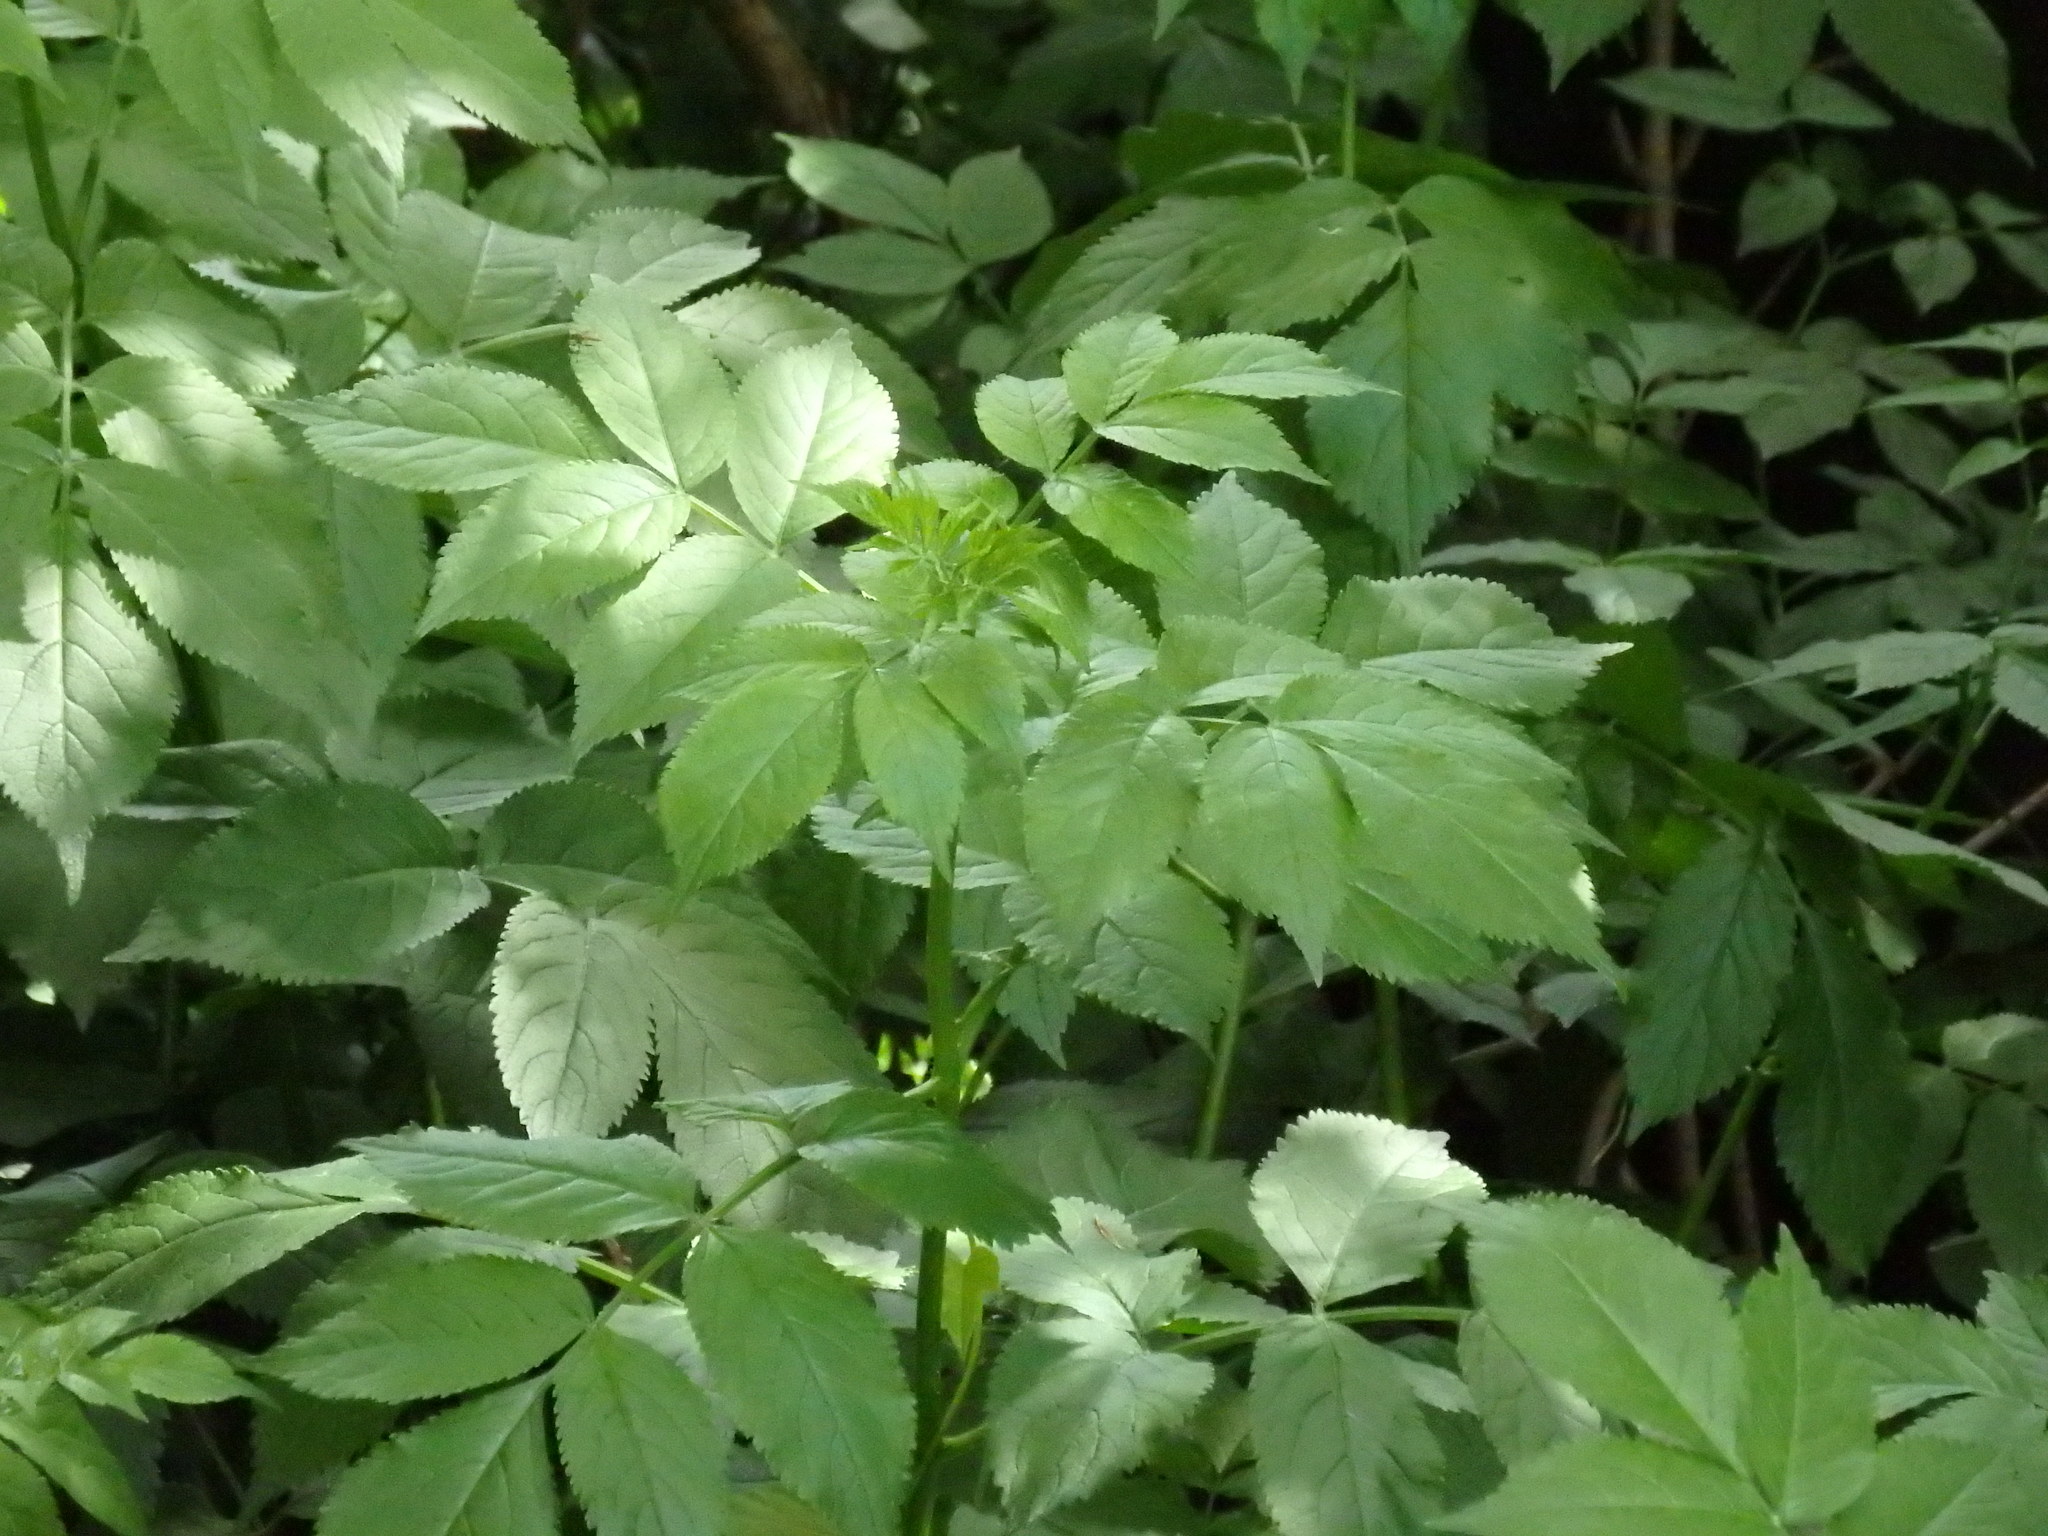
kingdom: Plantae
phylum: Tracheophyta
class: Magnoliopsida
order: Dipsacales
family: Viburnaceae
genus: Sambucus
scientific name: Sambucus nigra
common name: Elder
